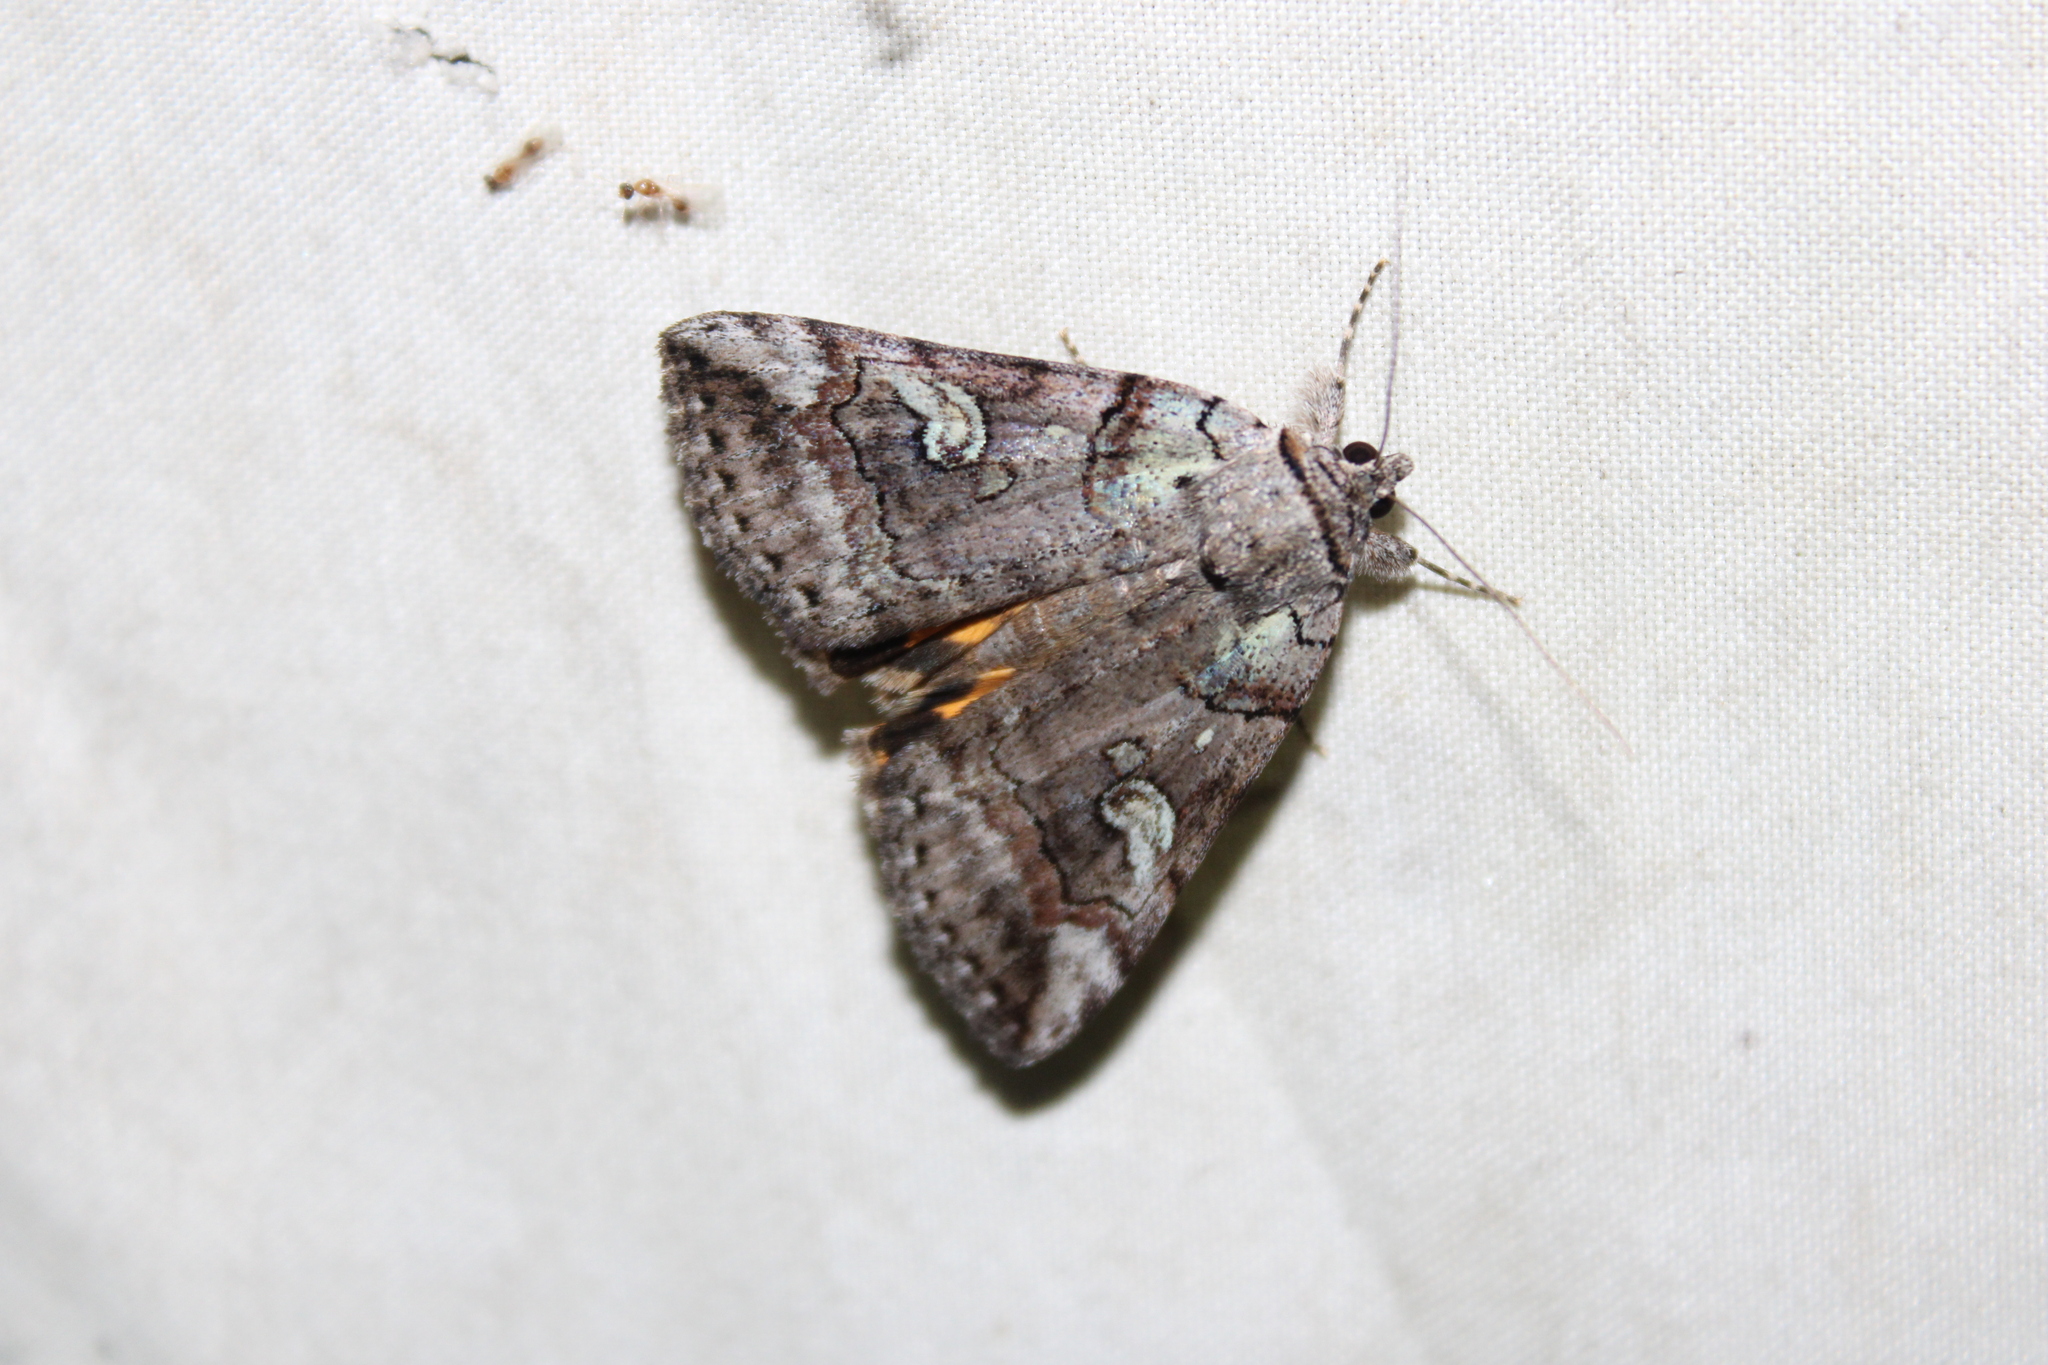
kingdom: Animalia
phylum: Arthropoda
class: Insecta
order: Lepidoptera
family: Erebidae
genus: Catocala
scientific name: Catocala similis
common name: Similar underwing
